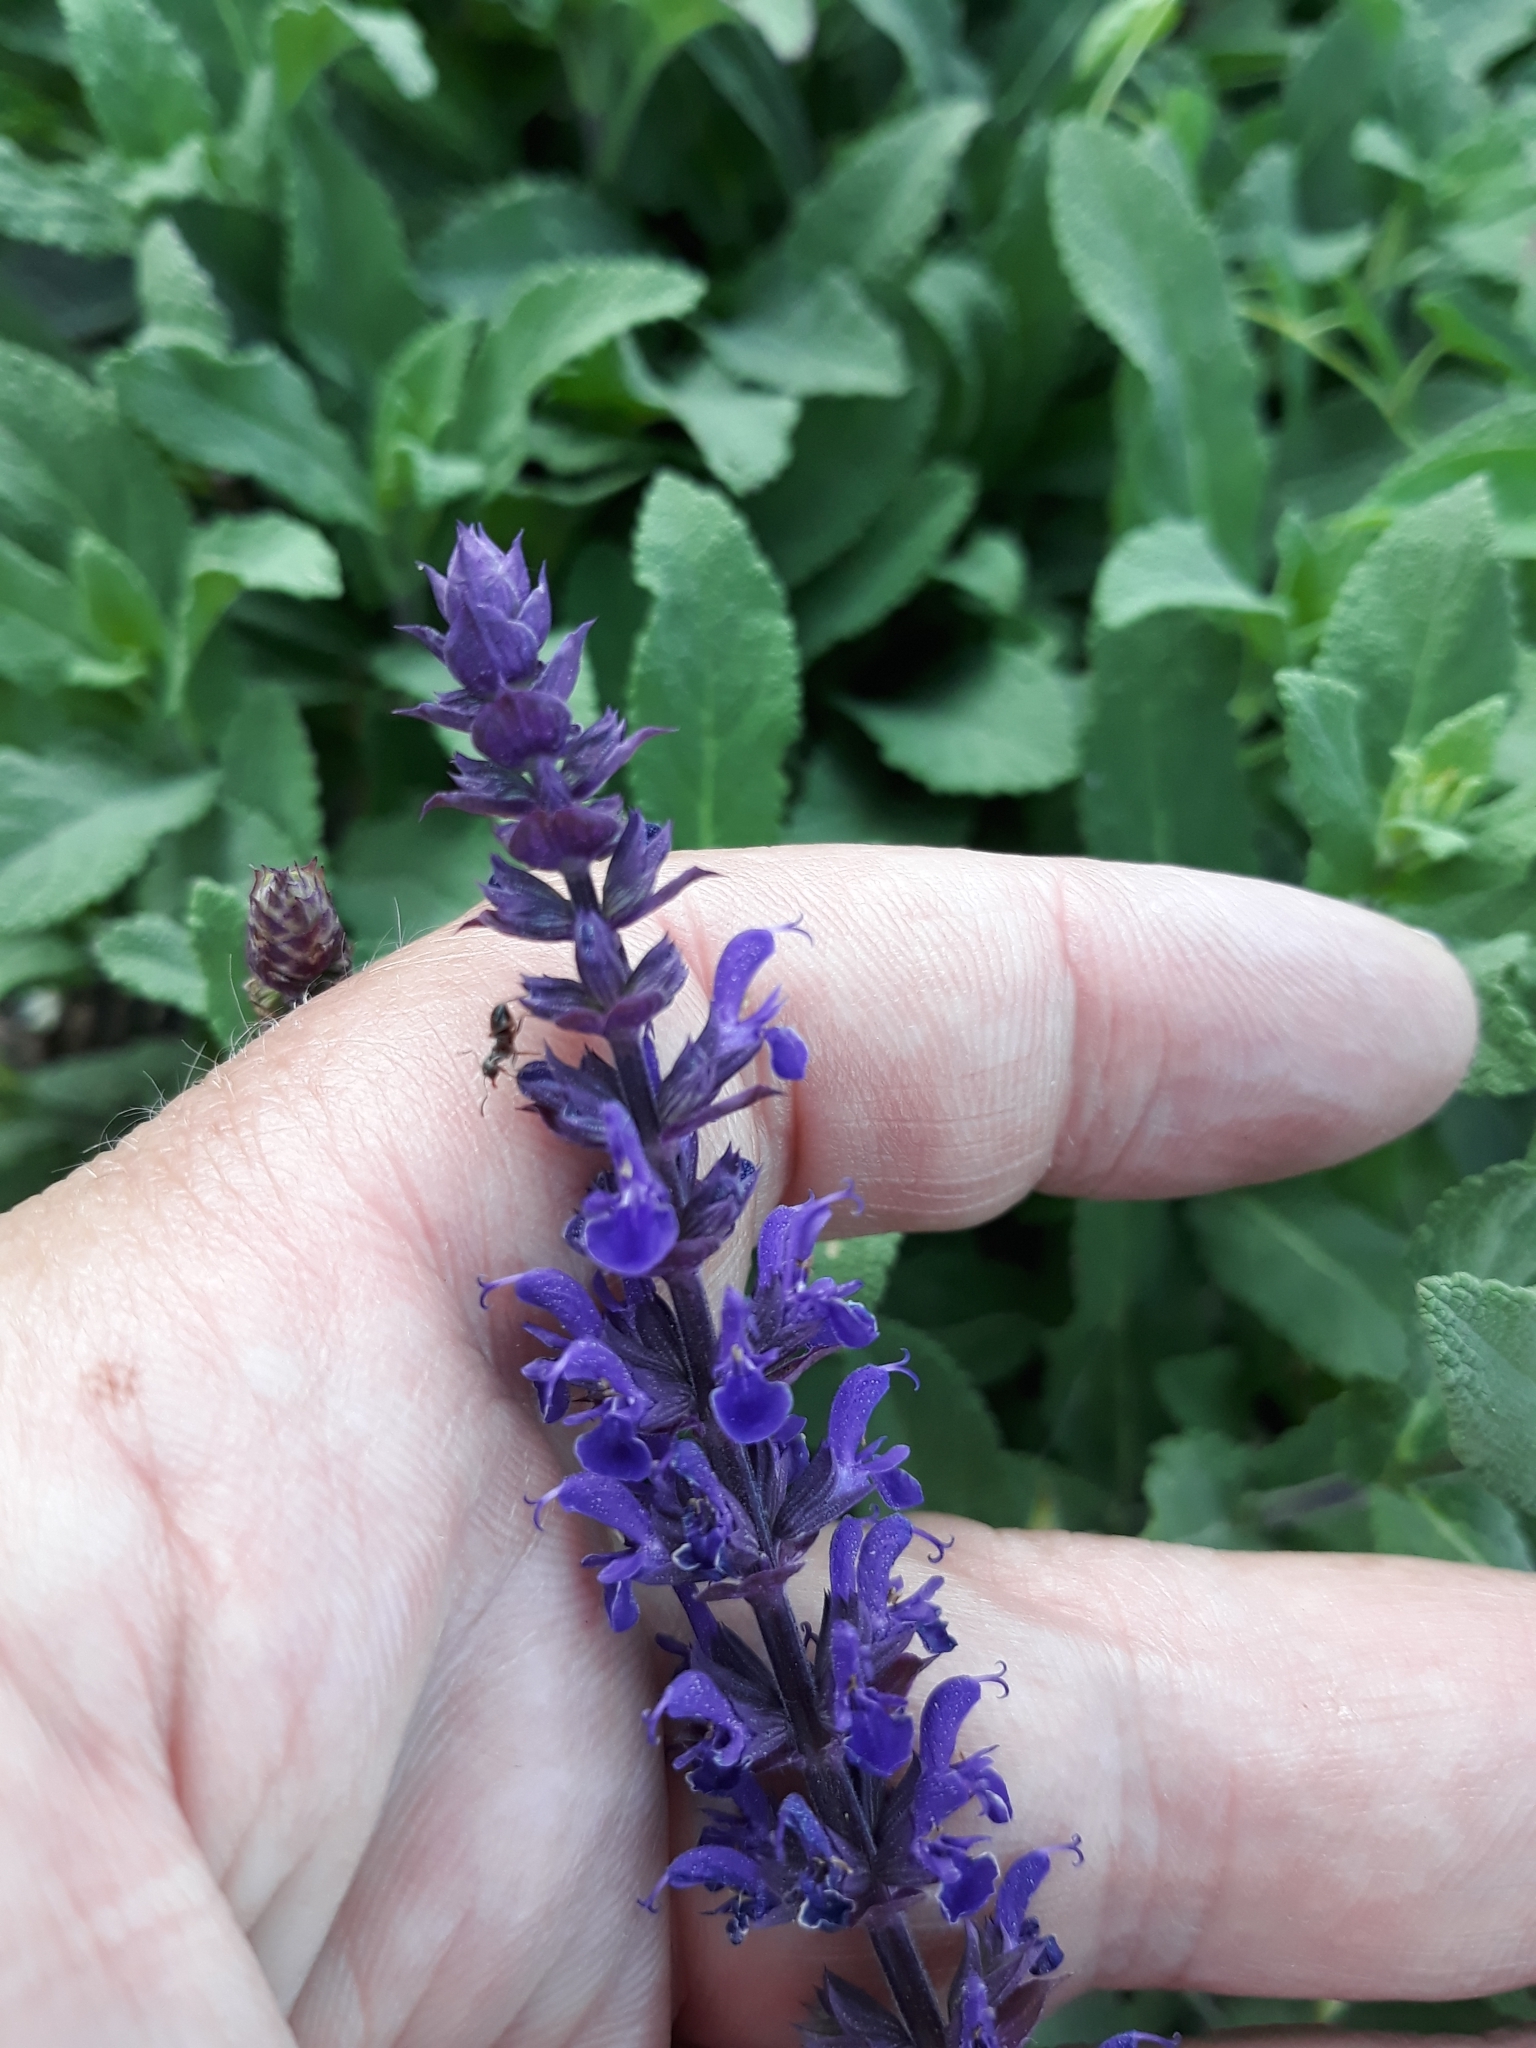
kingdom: Plantae
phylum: Tracheophyta
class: Magnoliopsida
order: Lamiales
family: Lamiaceae
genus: Salvia
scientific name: Salvia nemorosa
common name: Balkan clary
